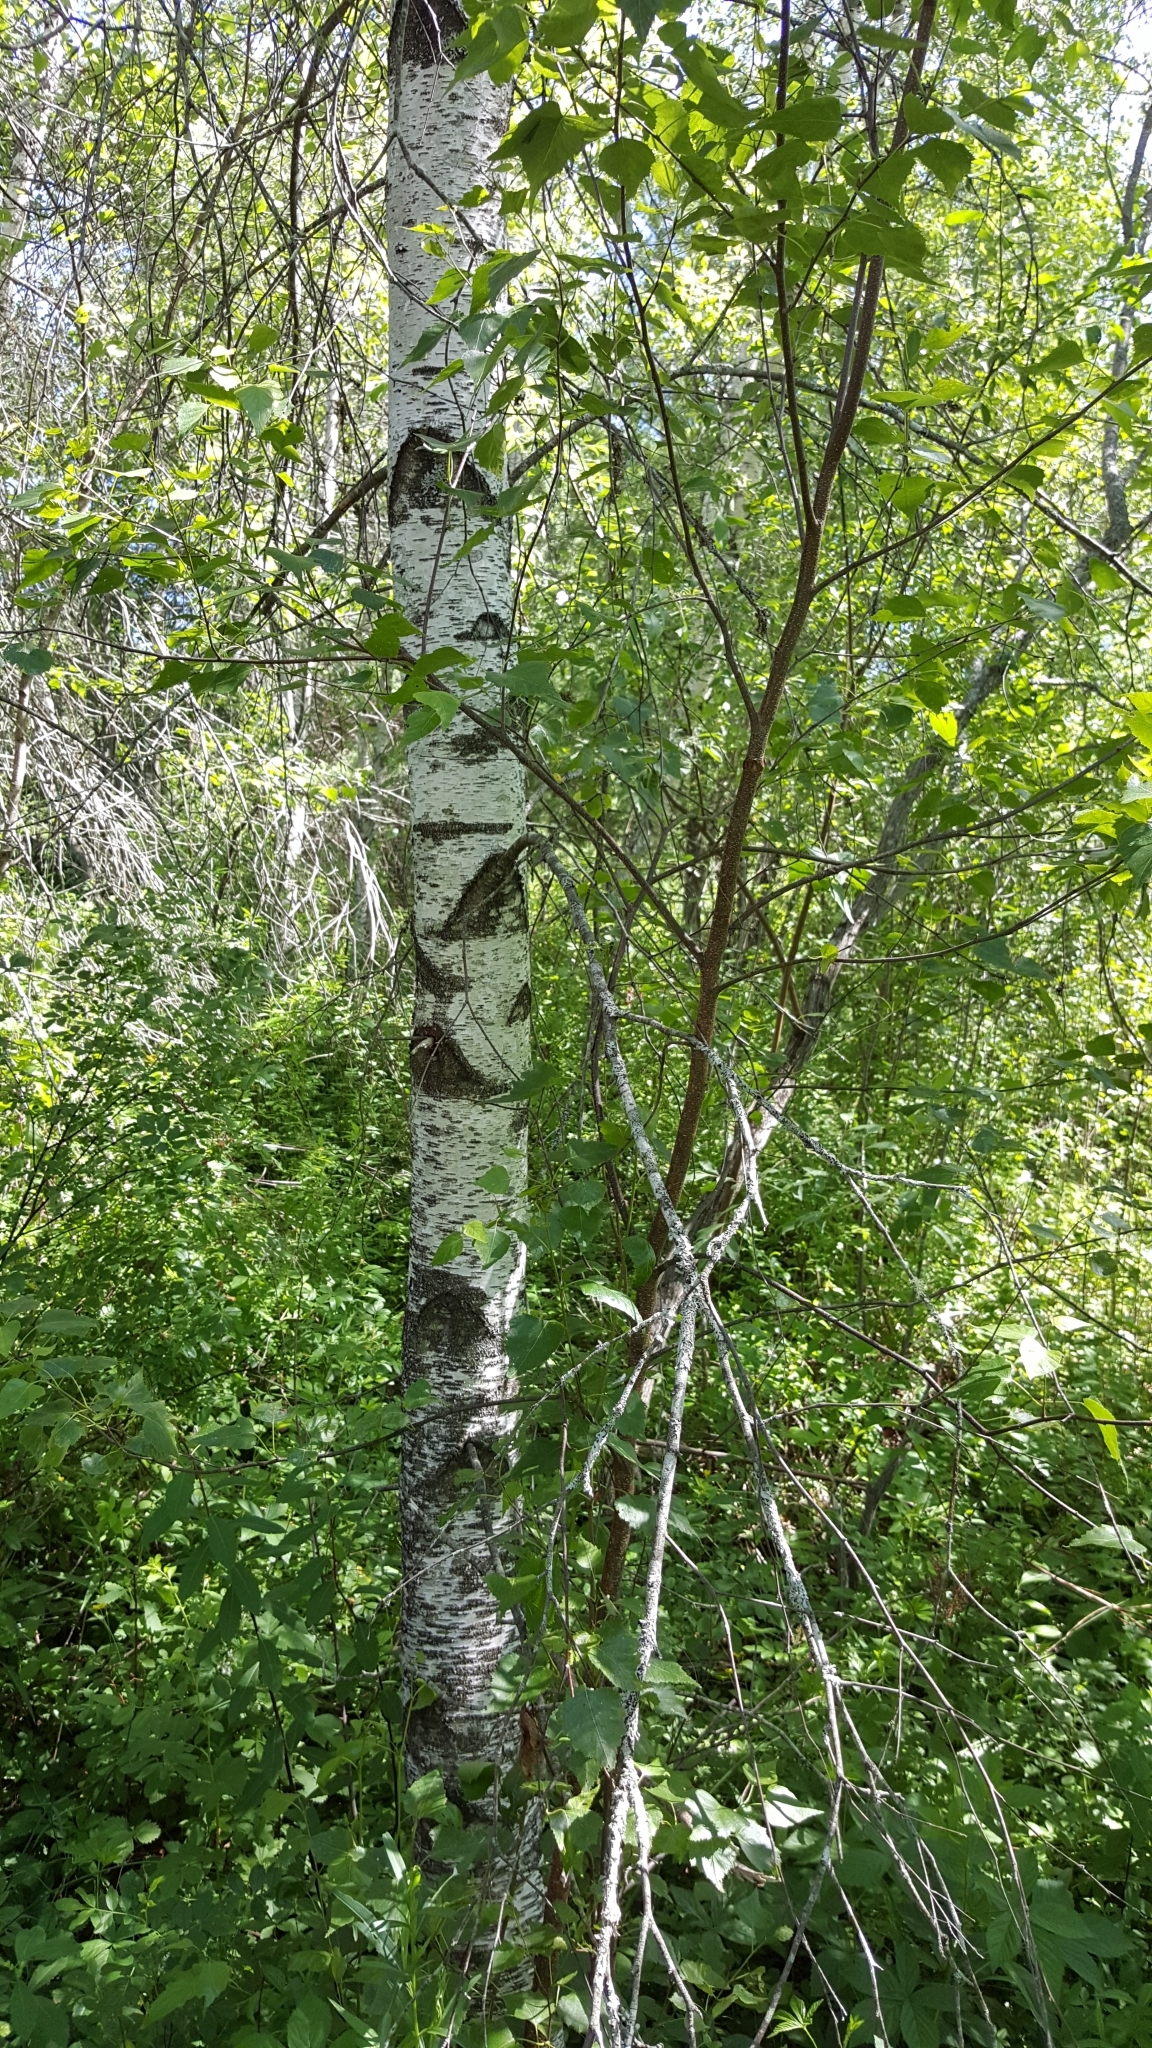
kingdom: Plantae
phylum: Tracheophyta
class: Magnoliopsida
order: Fagales
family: Betulaceae
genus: Betula
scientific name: Betula populifolia
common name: Fire birch
